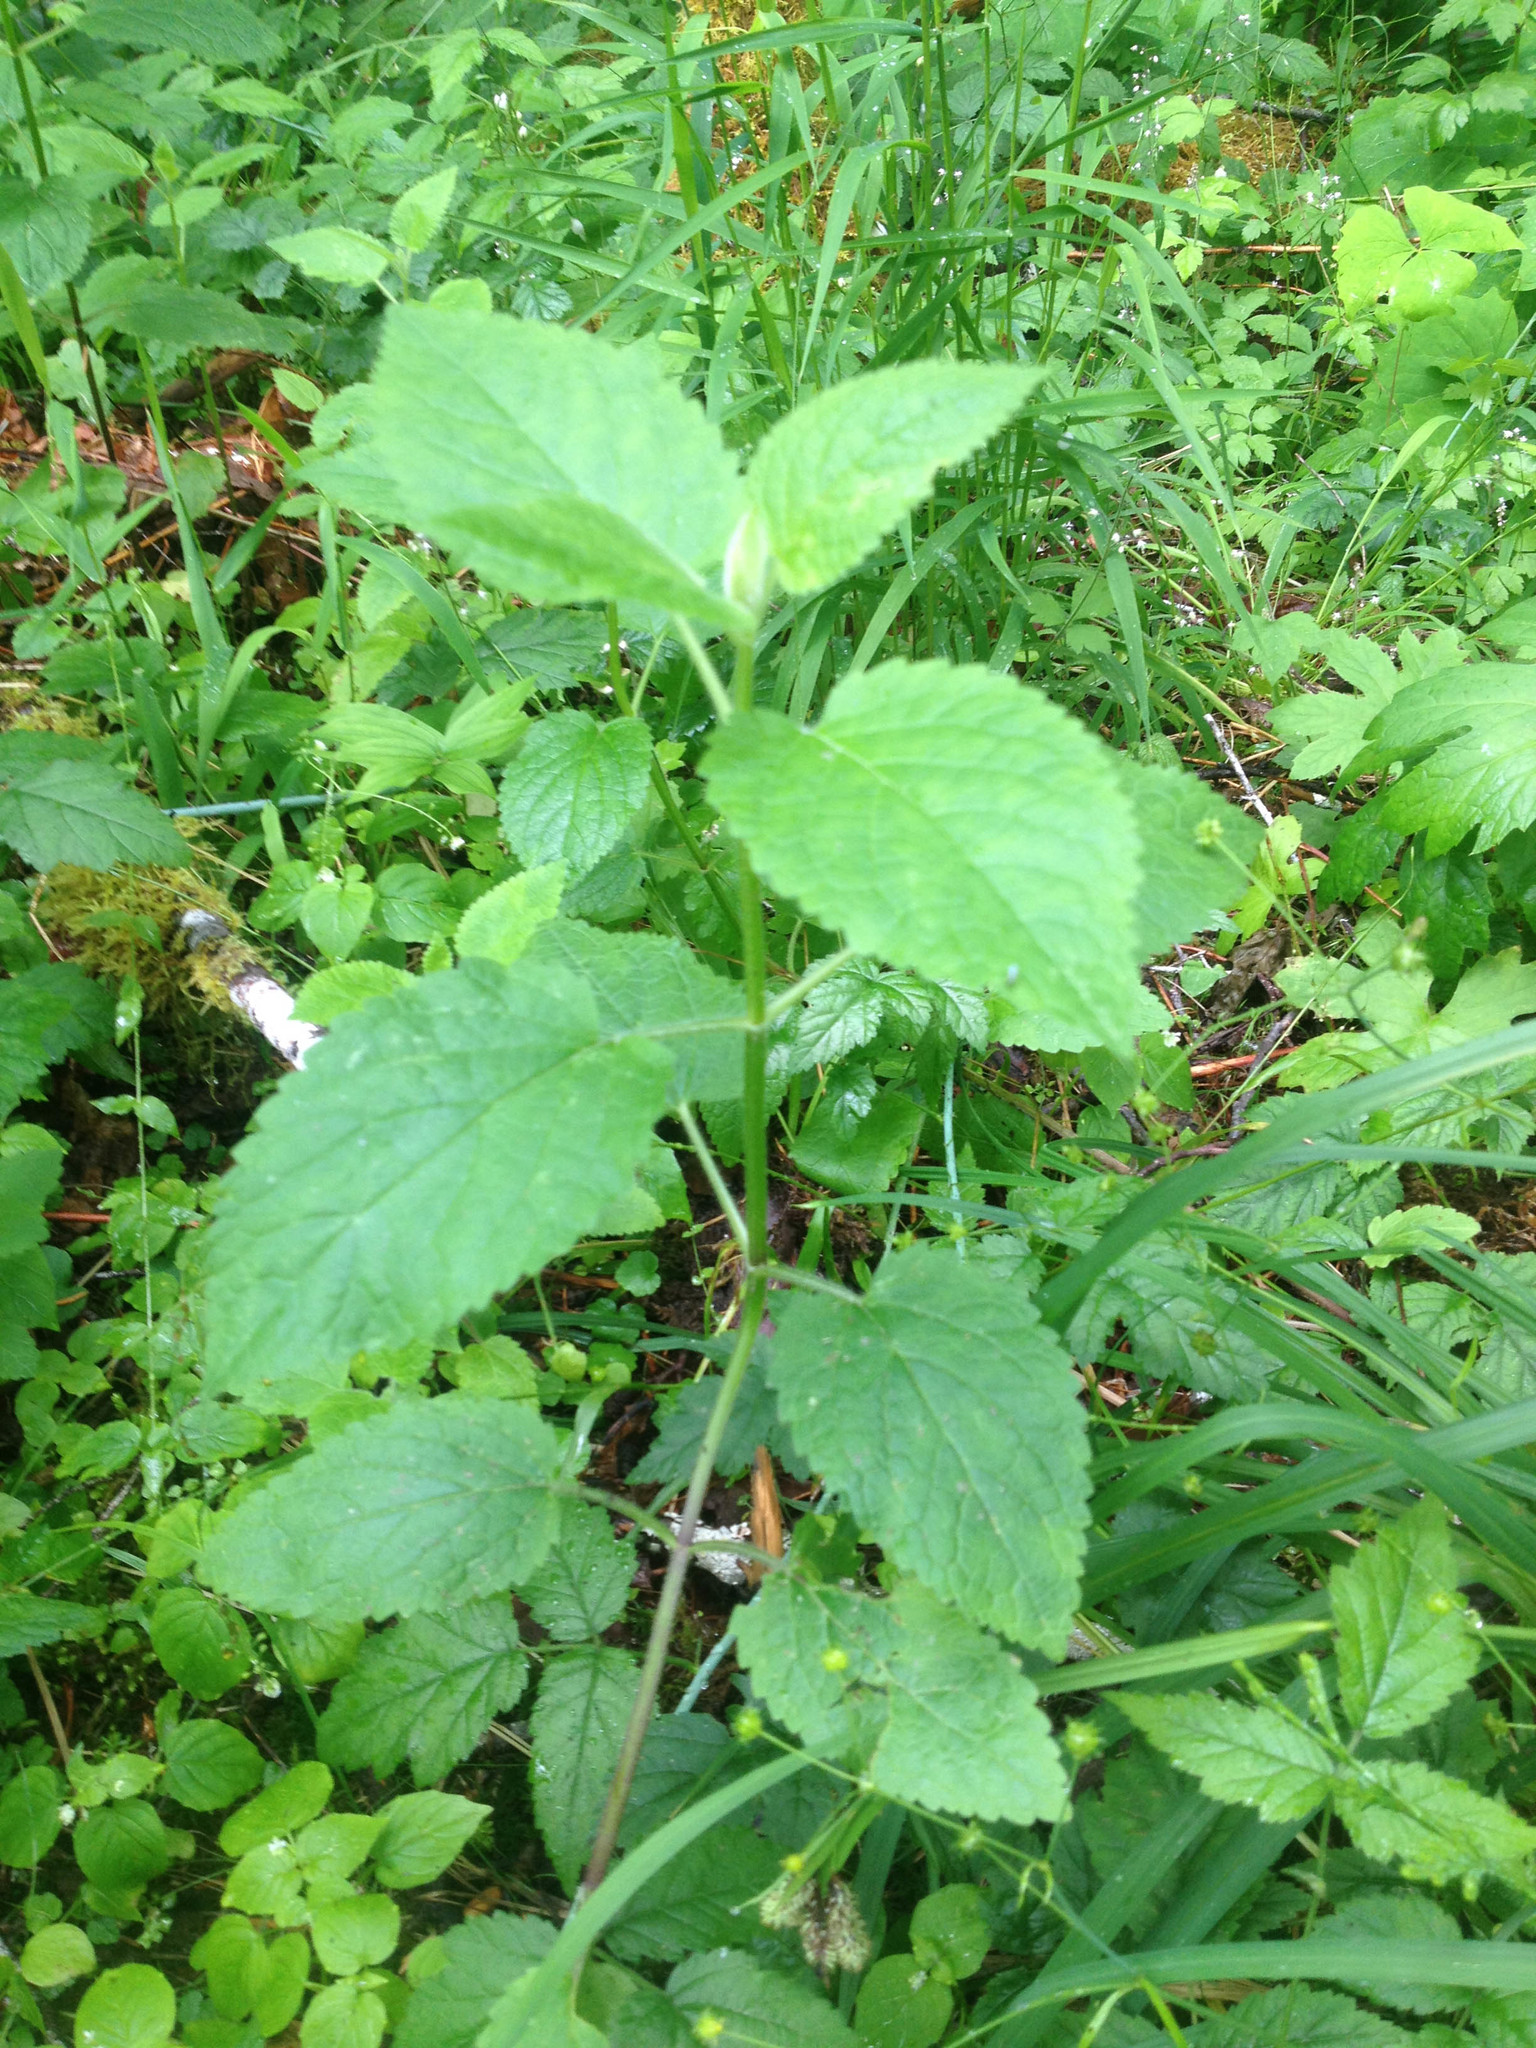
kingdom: Plantae
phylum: Tracheophyta
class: Magnoliopsida
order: Lamiales
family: Lamiaceae
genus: Stachys
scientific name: Stachys chamissonis
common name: Coastal hedge-nettle
